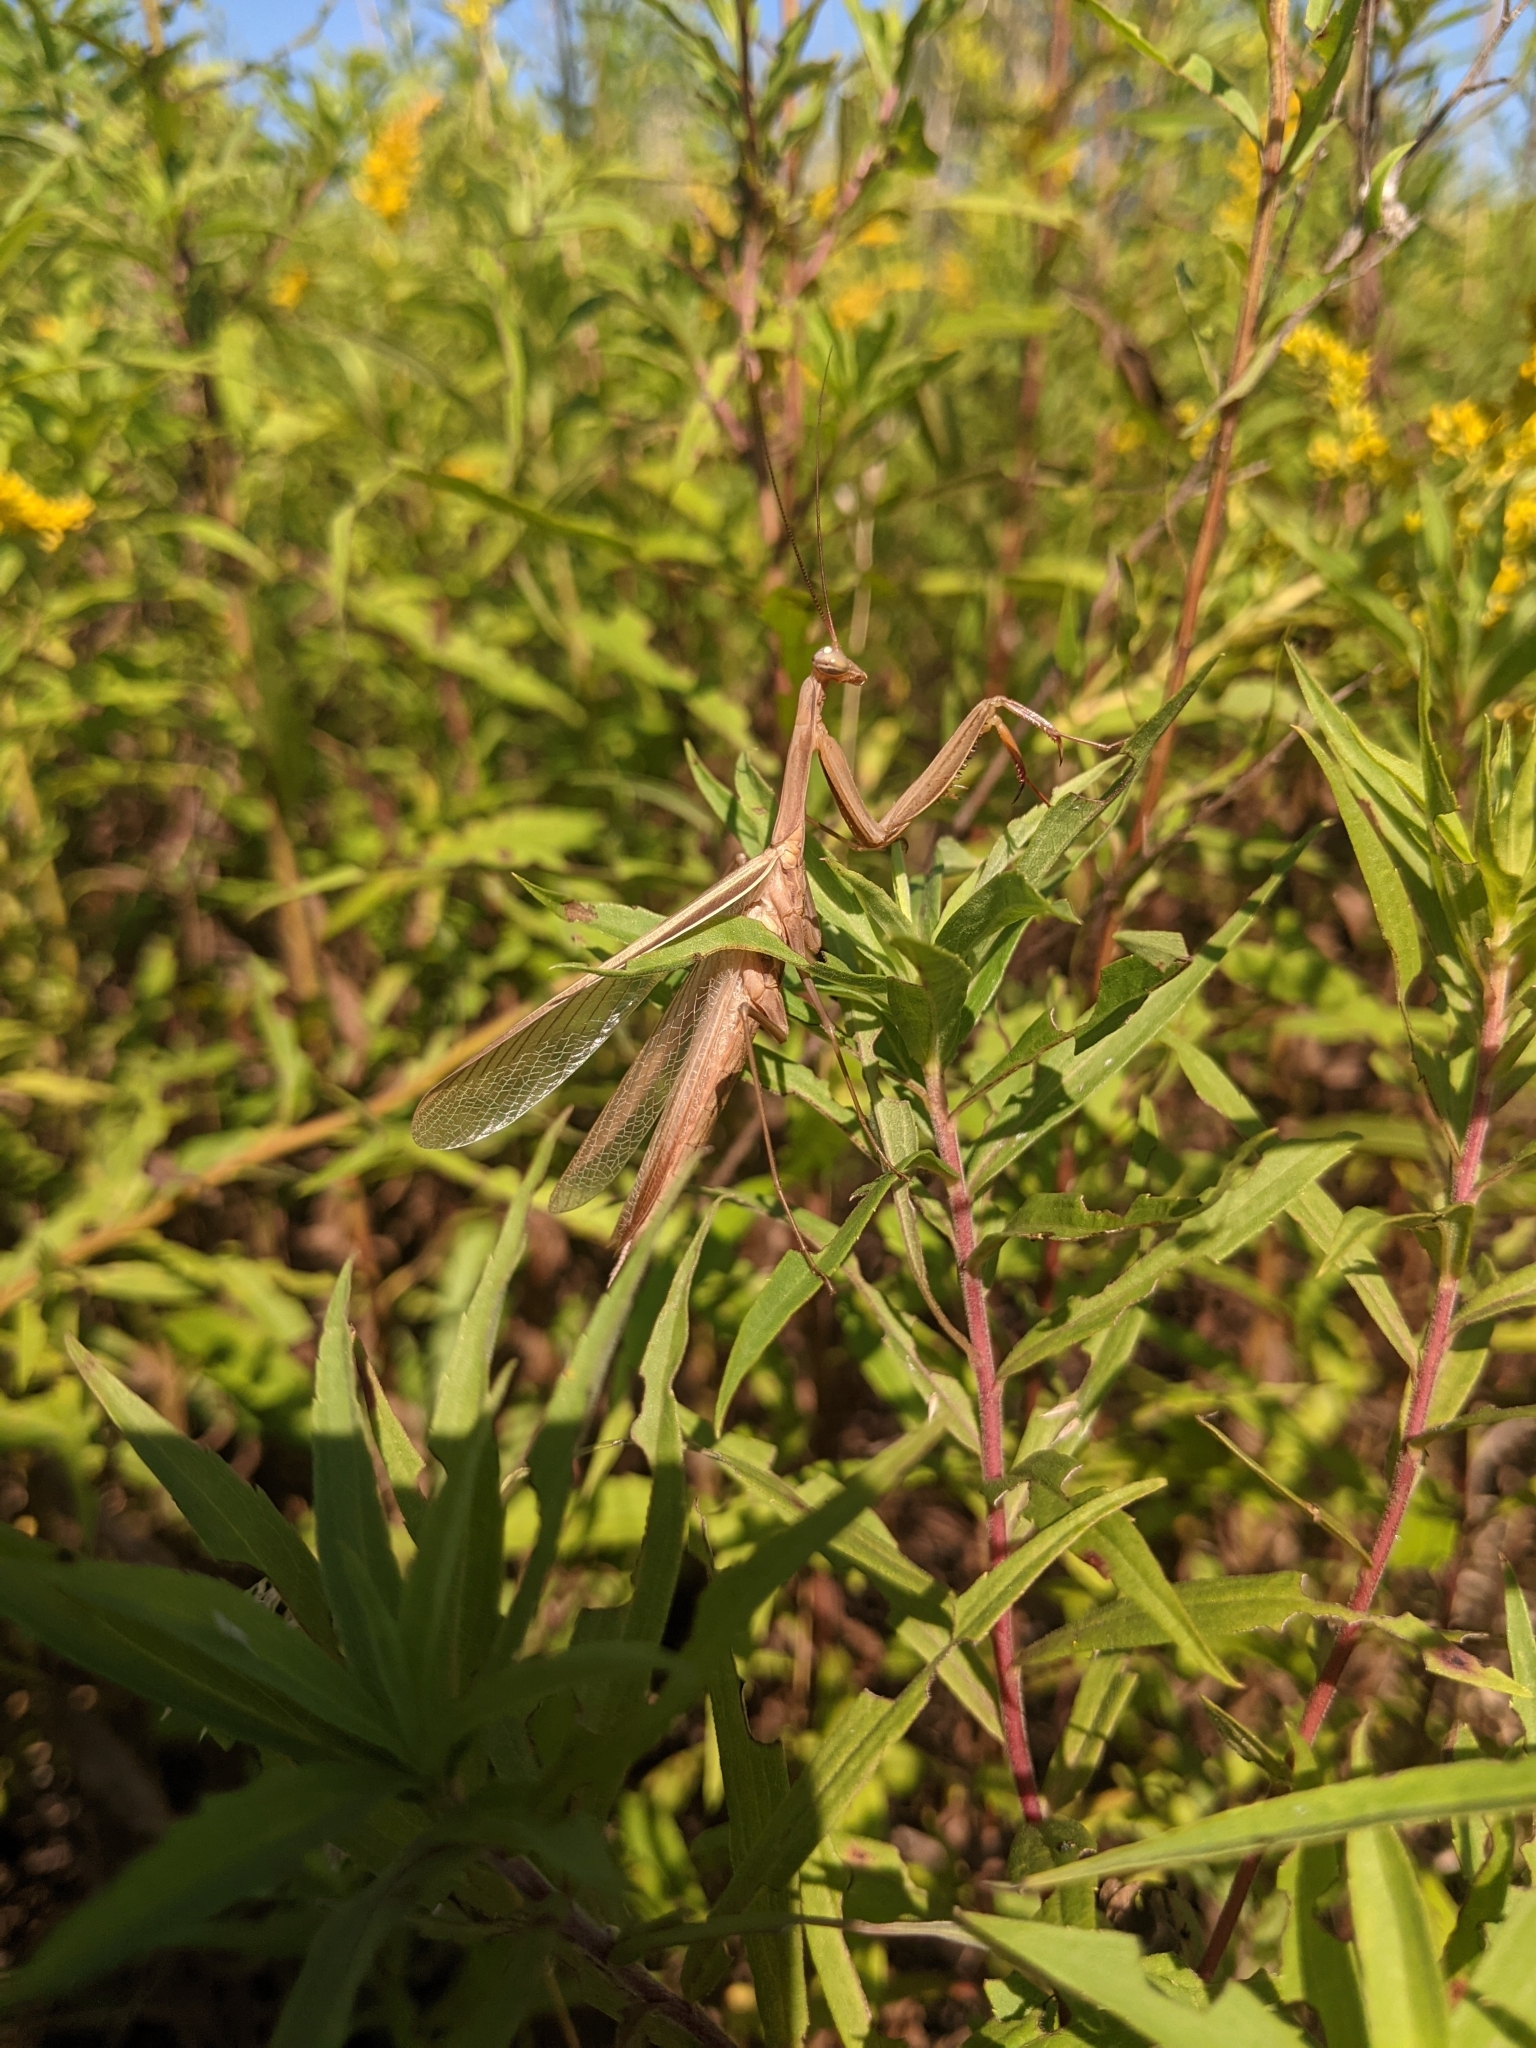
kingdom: Animalia
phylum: Arthropoda
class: Insecta
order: Mantodea
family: Mantidae
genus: Mantis
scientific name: Mantis religiosa
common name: Praying mantis
